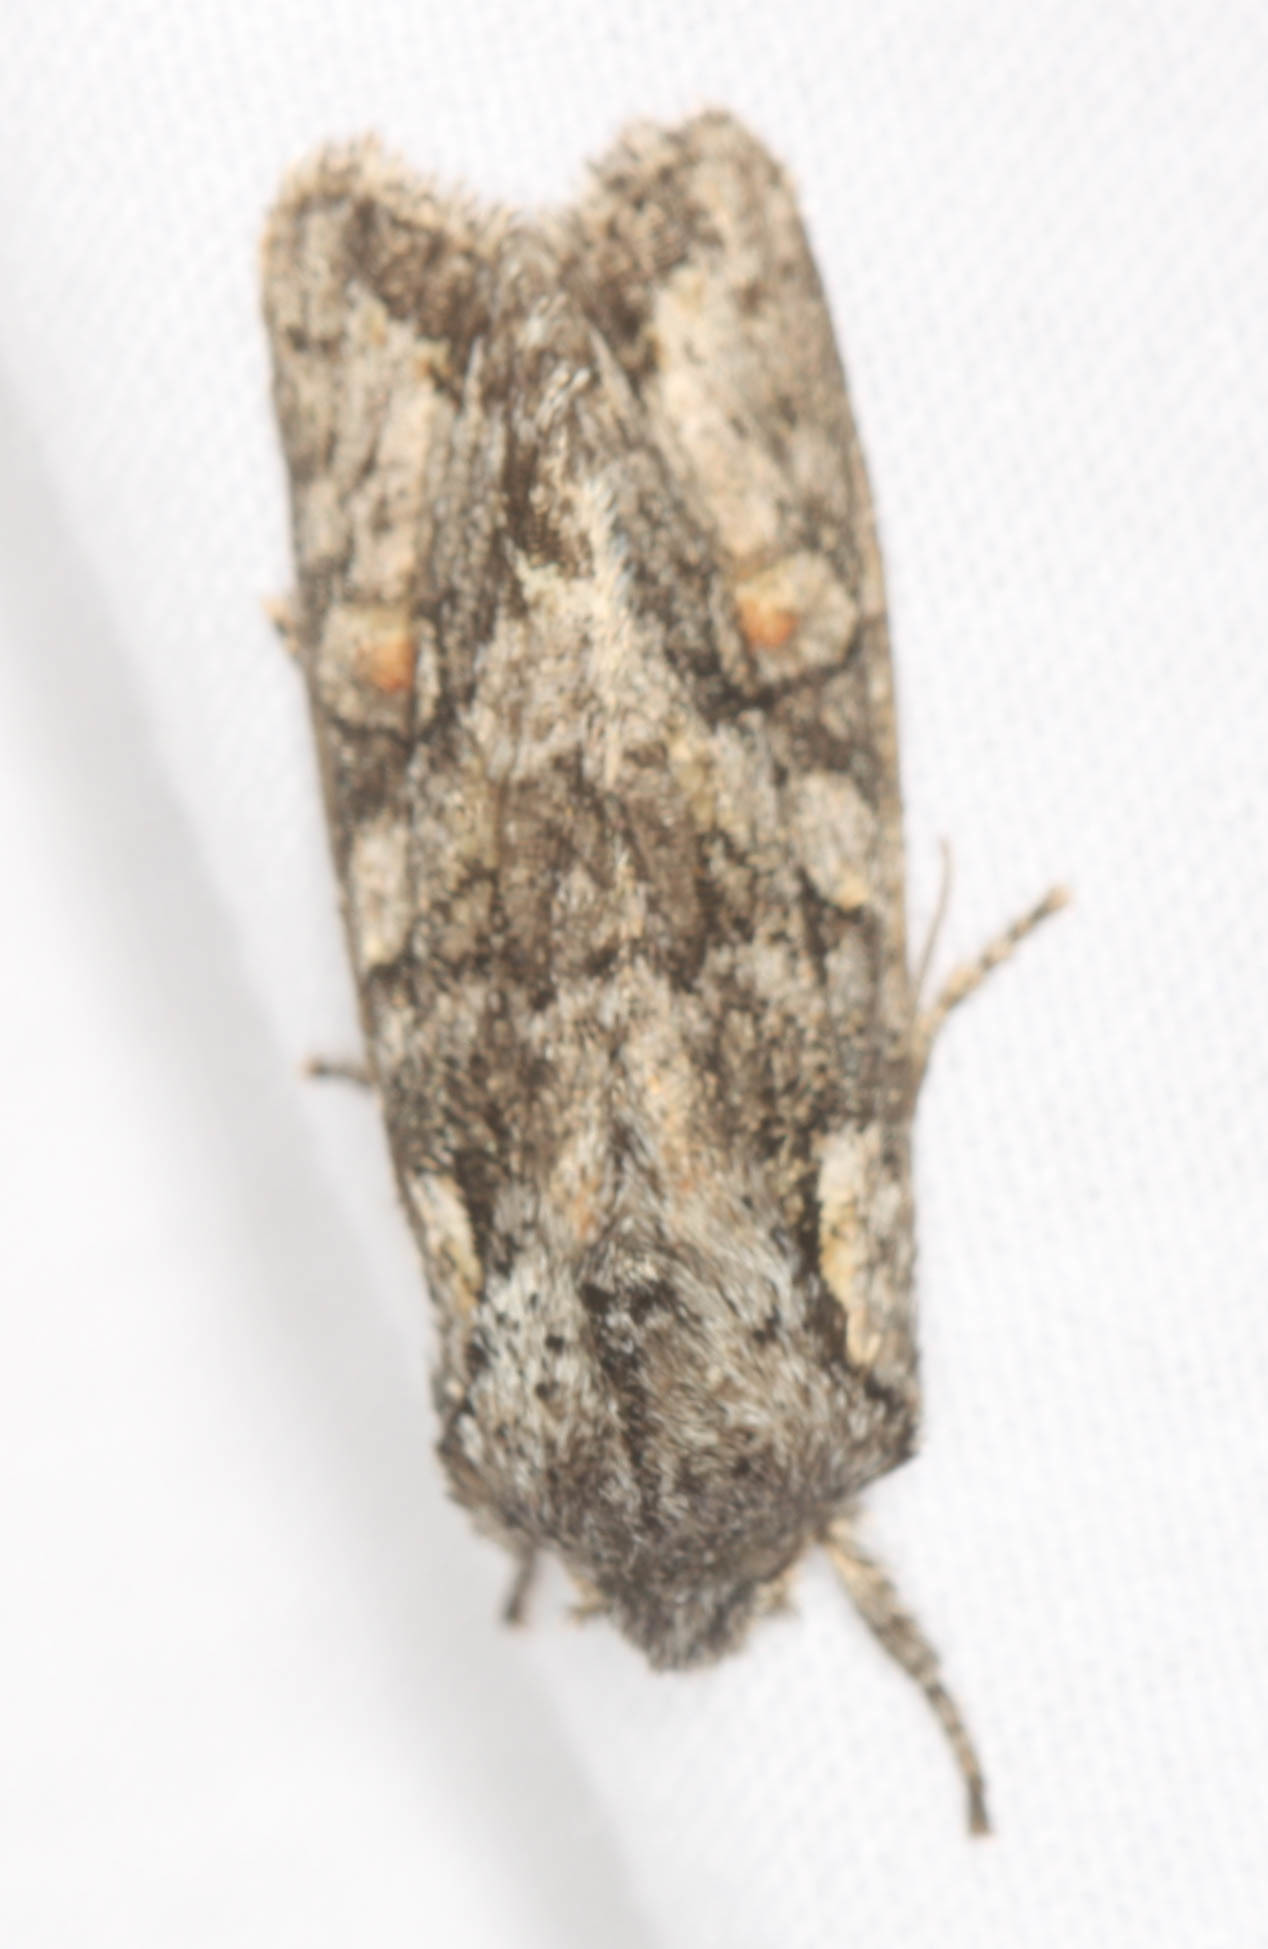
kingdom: Animalia
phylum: Arthropoda
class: Insecta
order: Lepidoptera
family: Noctuidae
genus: Egira
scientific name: Egira hiemalis
